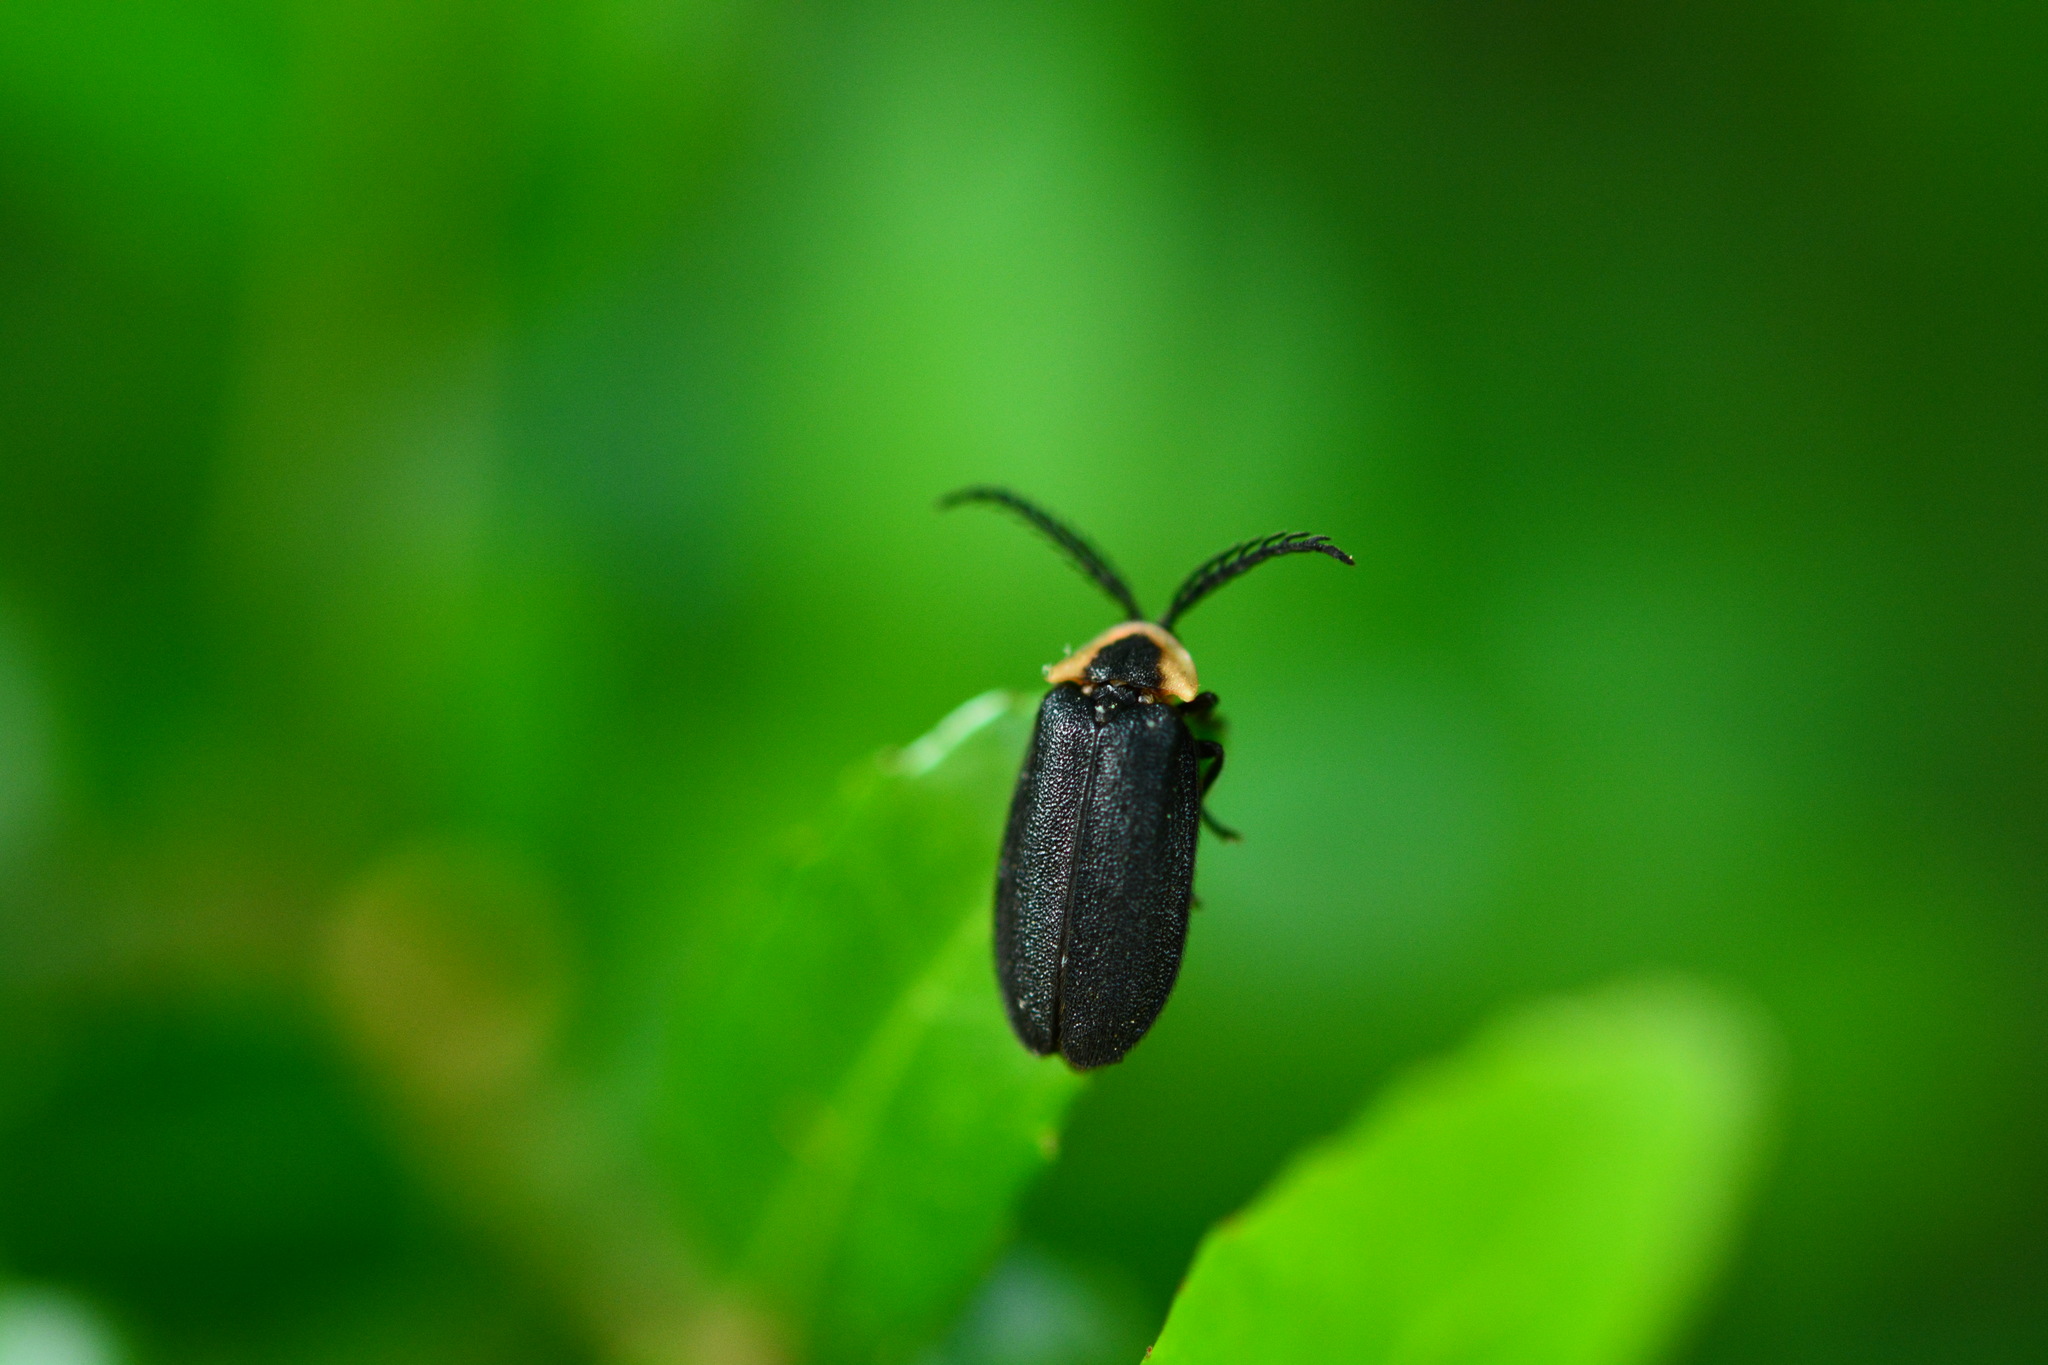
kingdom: Animalia
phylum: Arthropoda
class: Insecta
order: Coleoptera
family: Lampyridae
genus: Pollaclasis
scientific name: Pollaclasis bifaria
